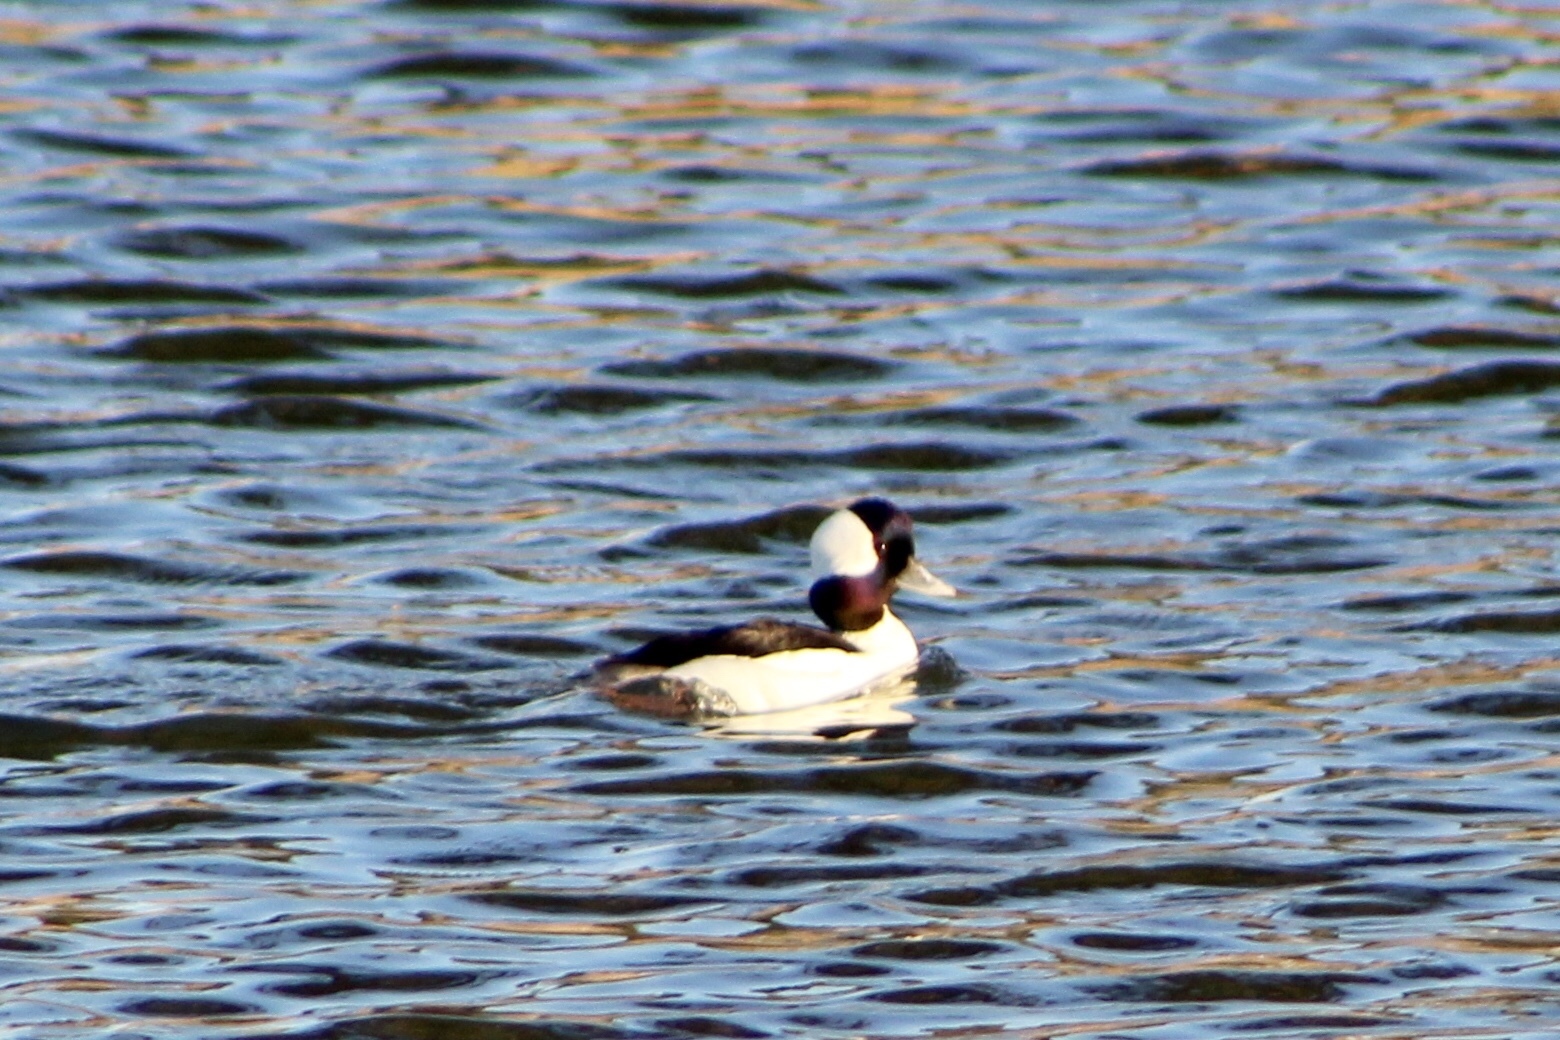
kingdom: Animalia
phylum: Chordata
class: Aves
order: Anseriformes
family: Anatidae
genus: Bucephala
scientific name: Bucephala albeola
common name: Bufflehead
